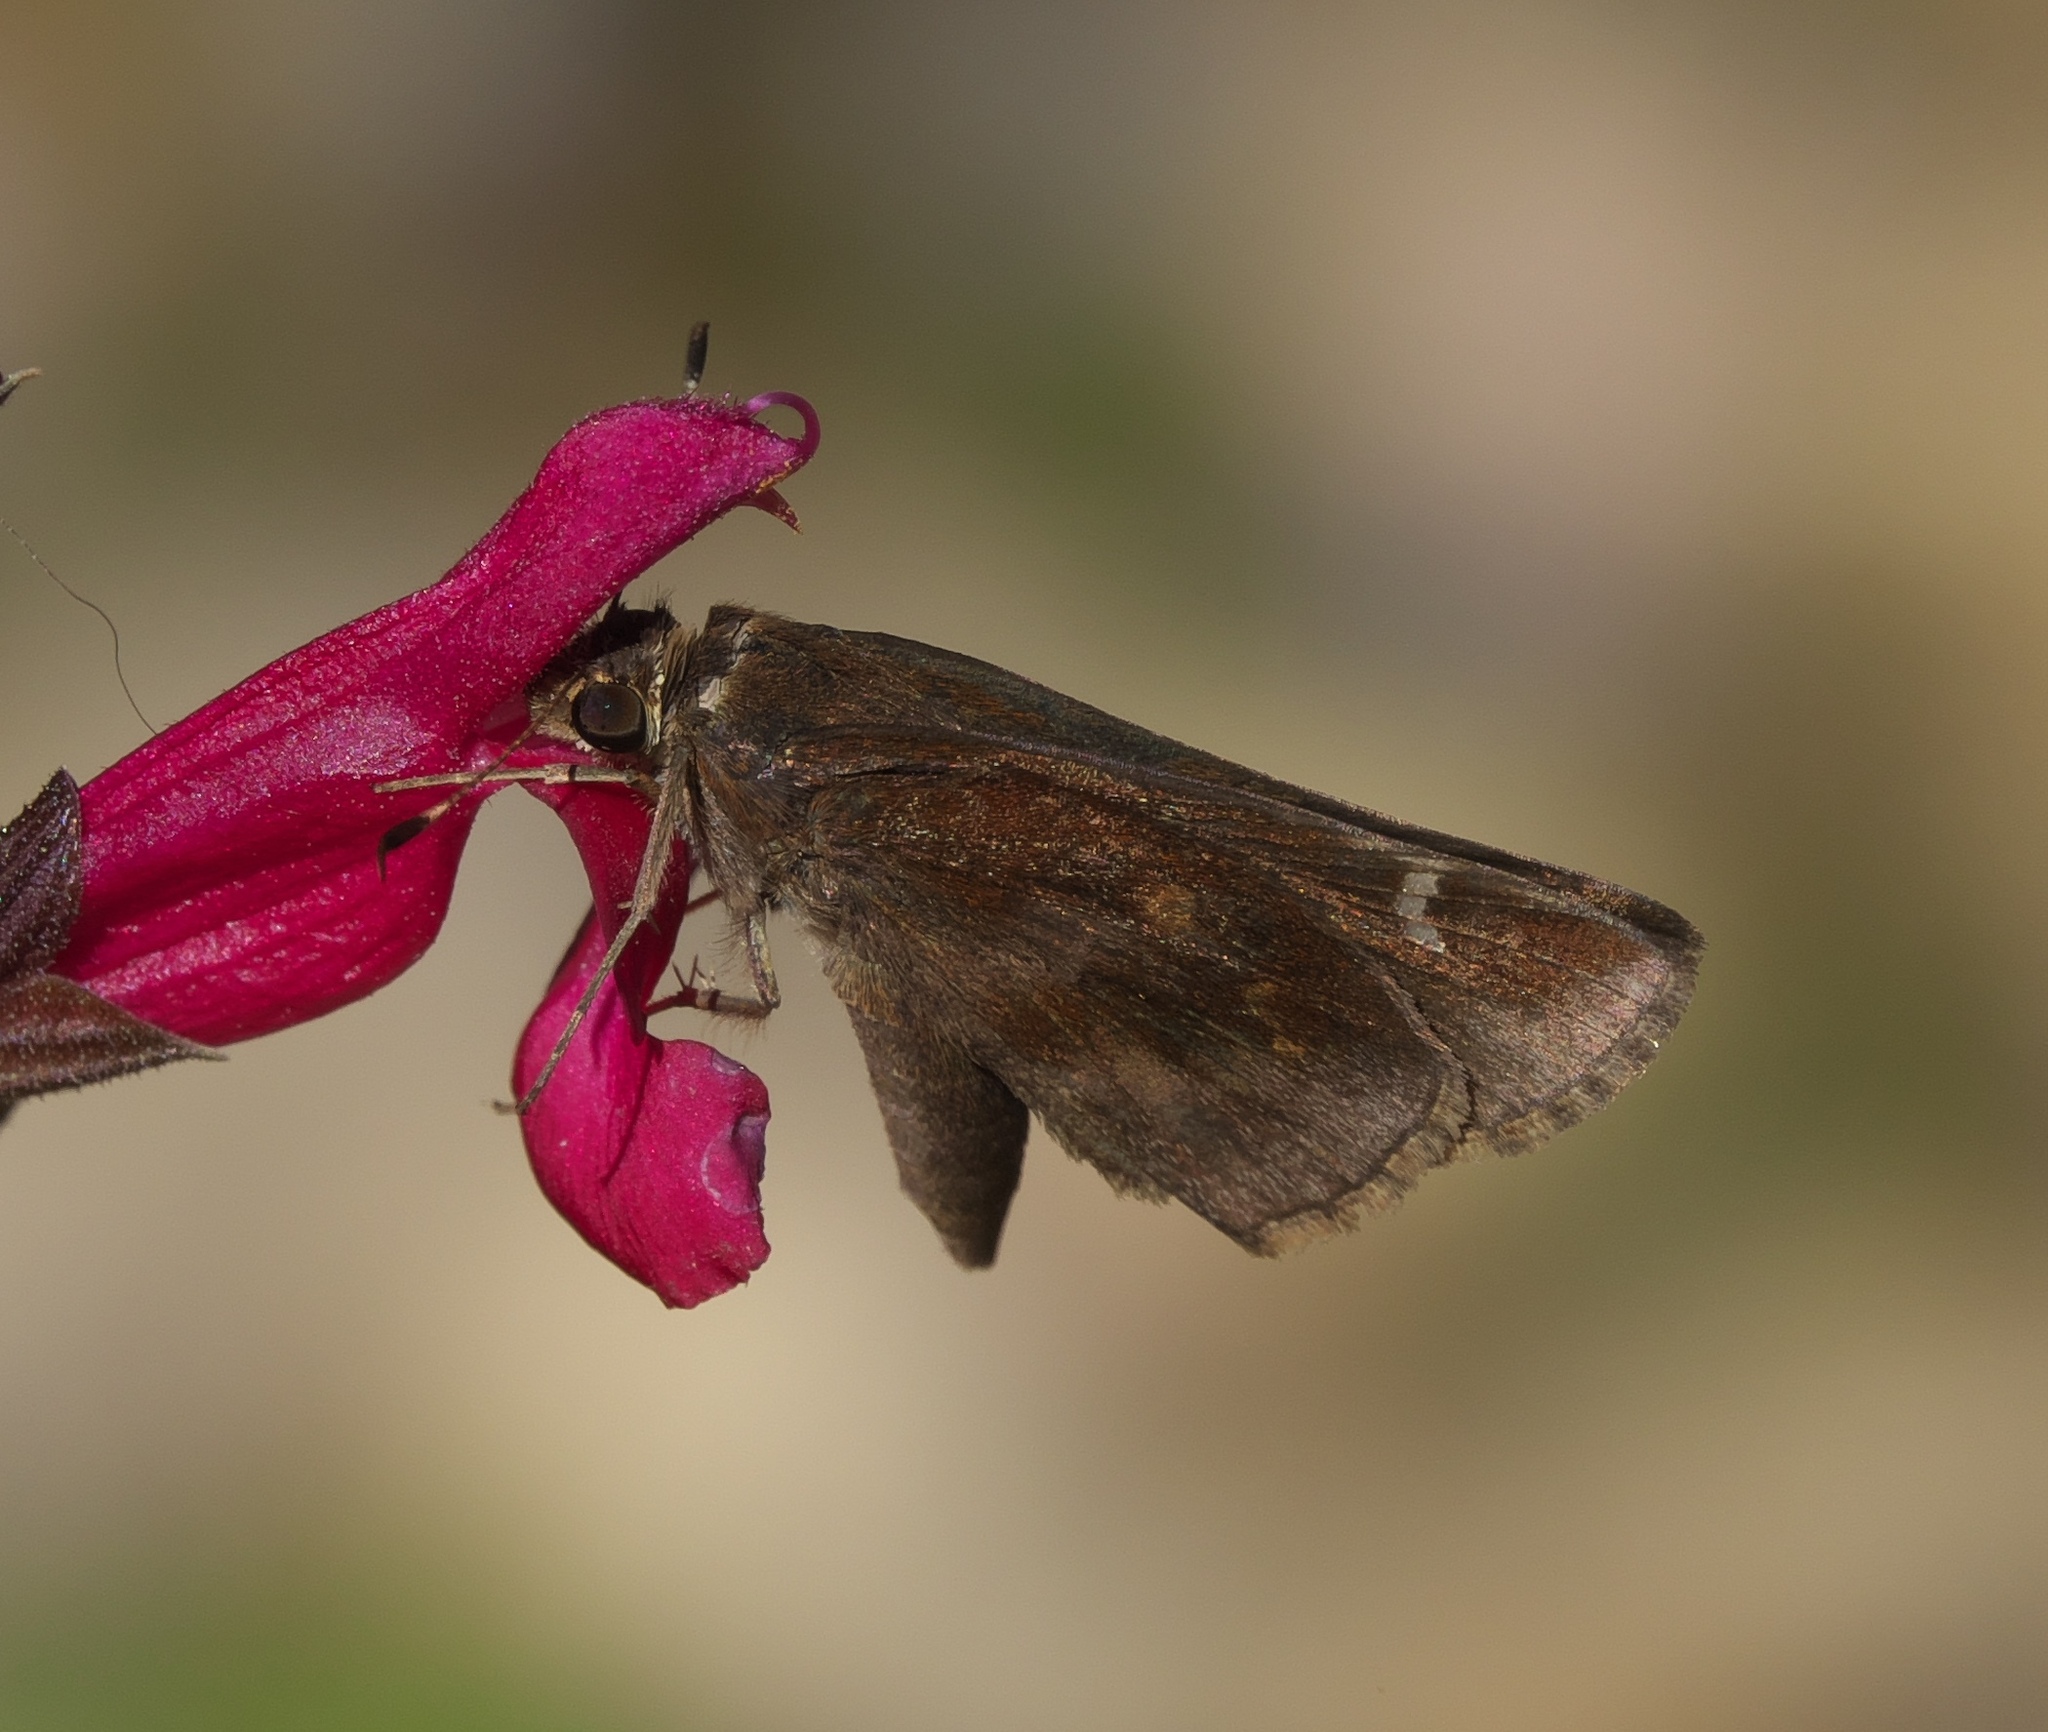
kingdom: Animalia
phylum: Arthropoda
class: Insecta
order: Lepidoptera
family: Hesperiidae
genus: Lerema
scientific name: Lerema accius
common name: Clouded skipper
